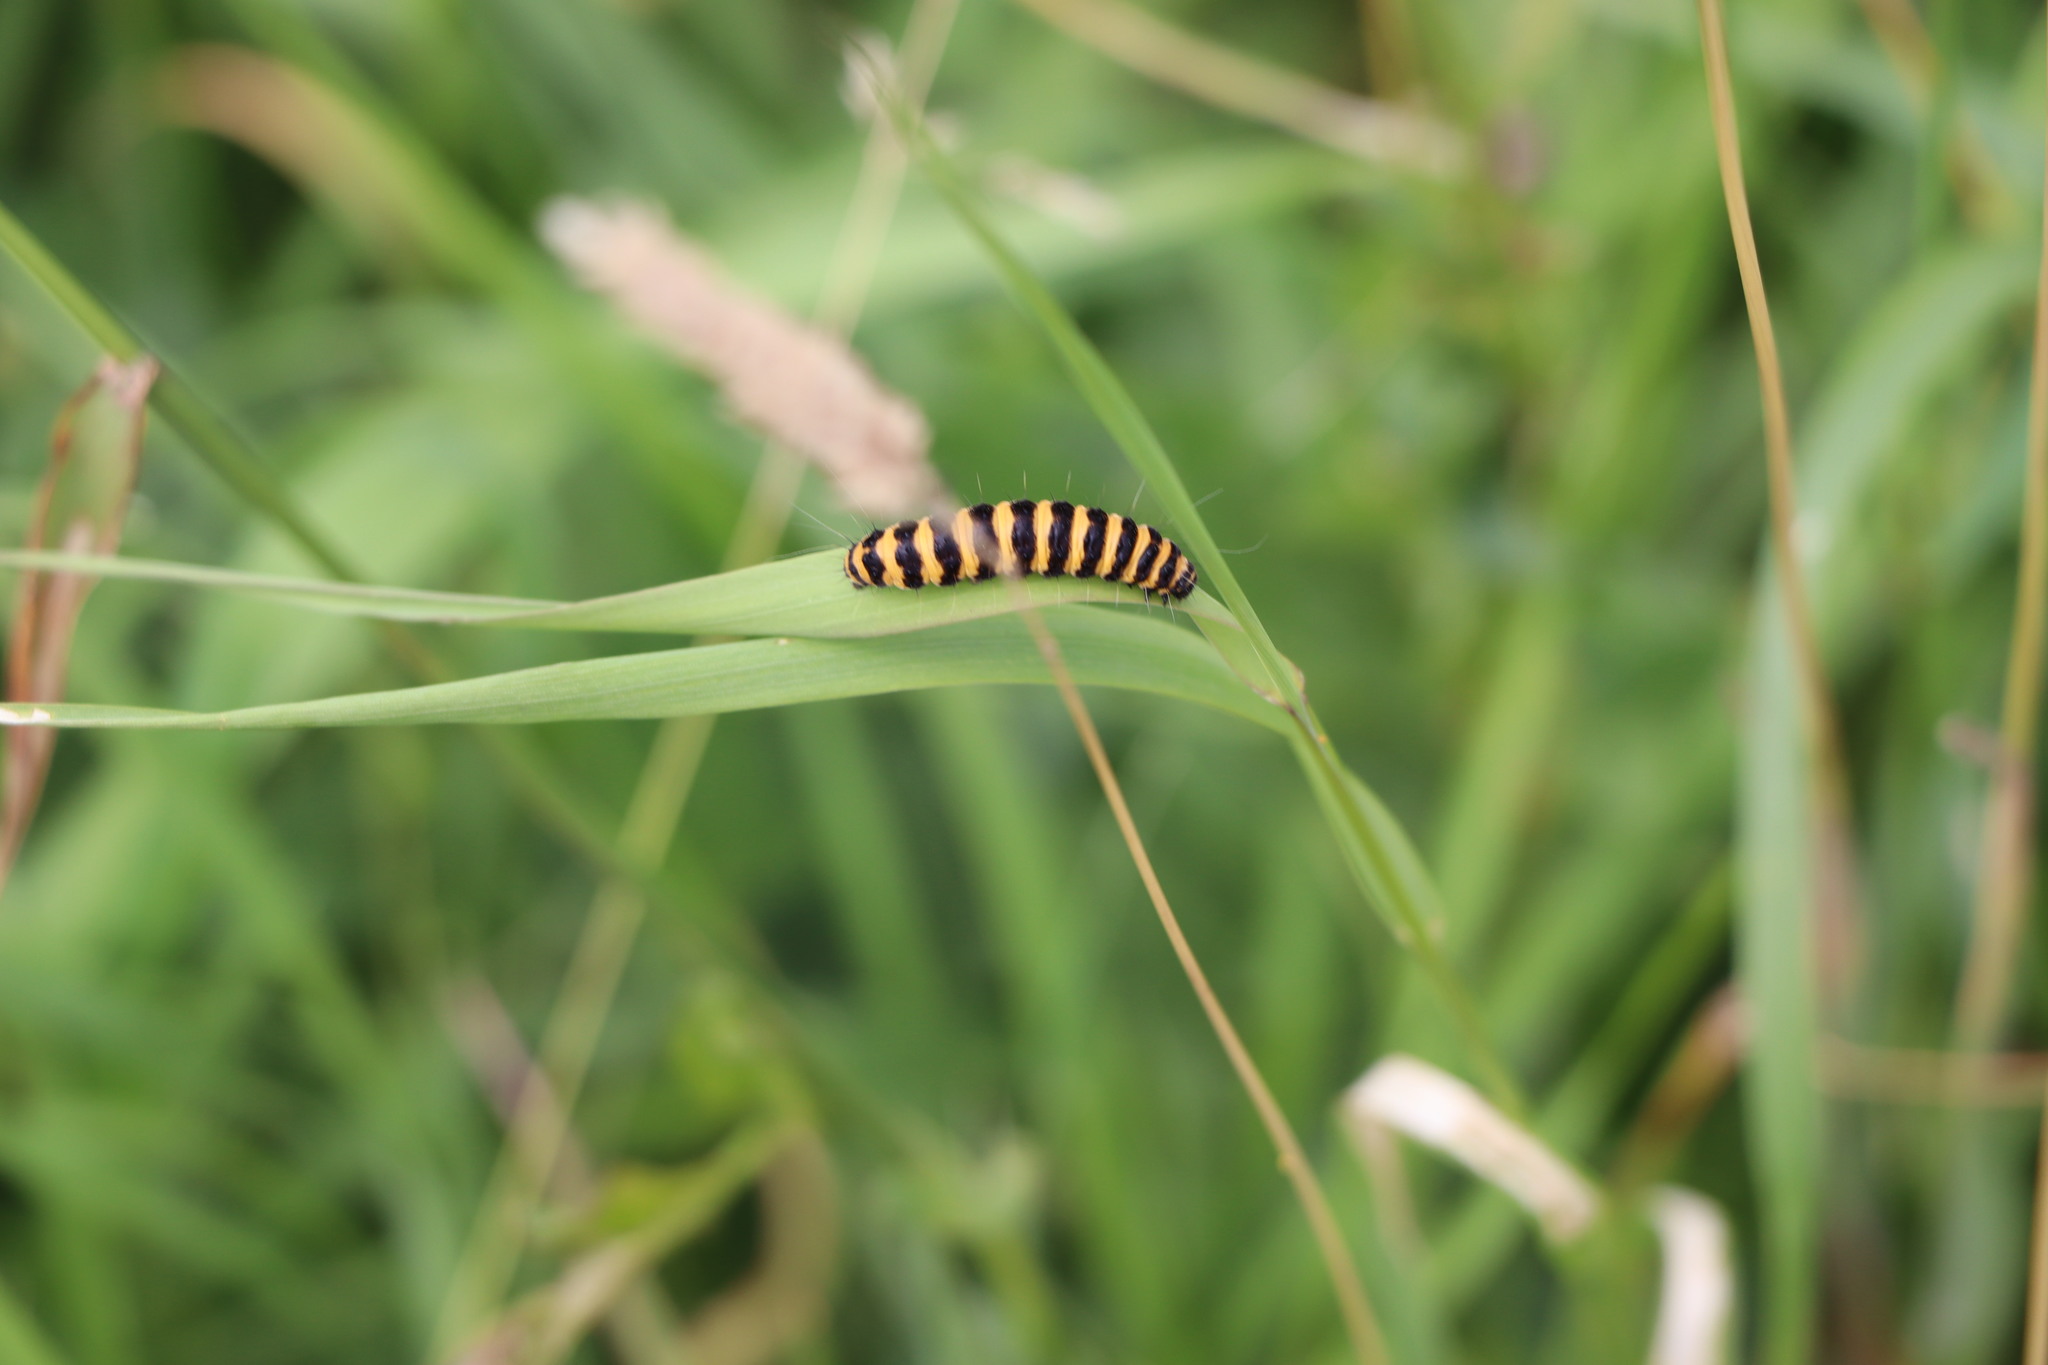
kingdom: Animalia
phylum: Arthropoda
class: Insecta
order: Lepidoptera
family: Erebidae
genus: Tyria
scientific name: Tyria jacobaeae
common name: Cinnabar
